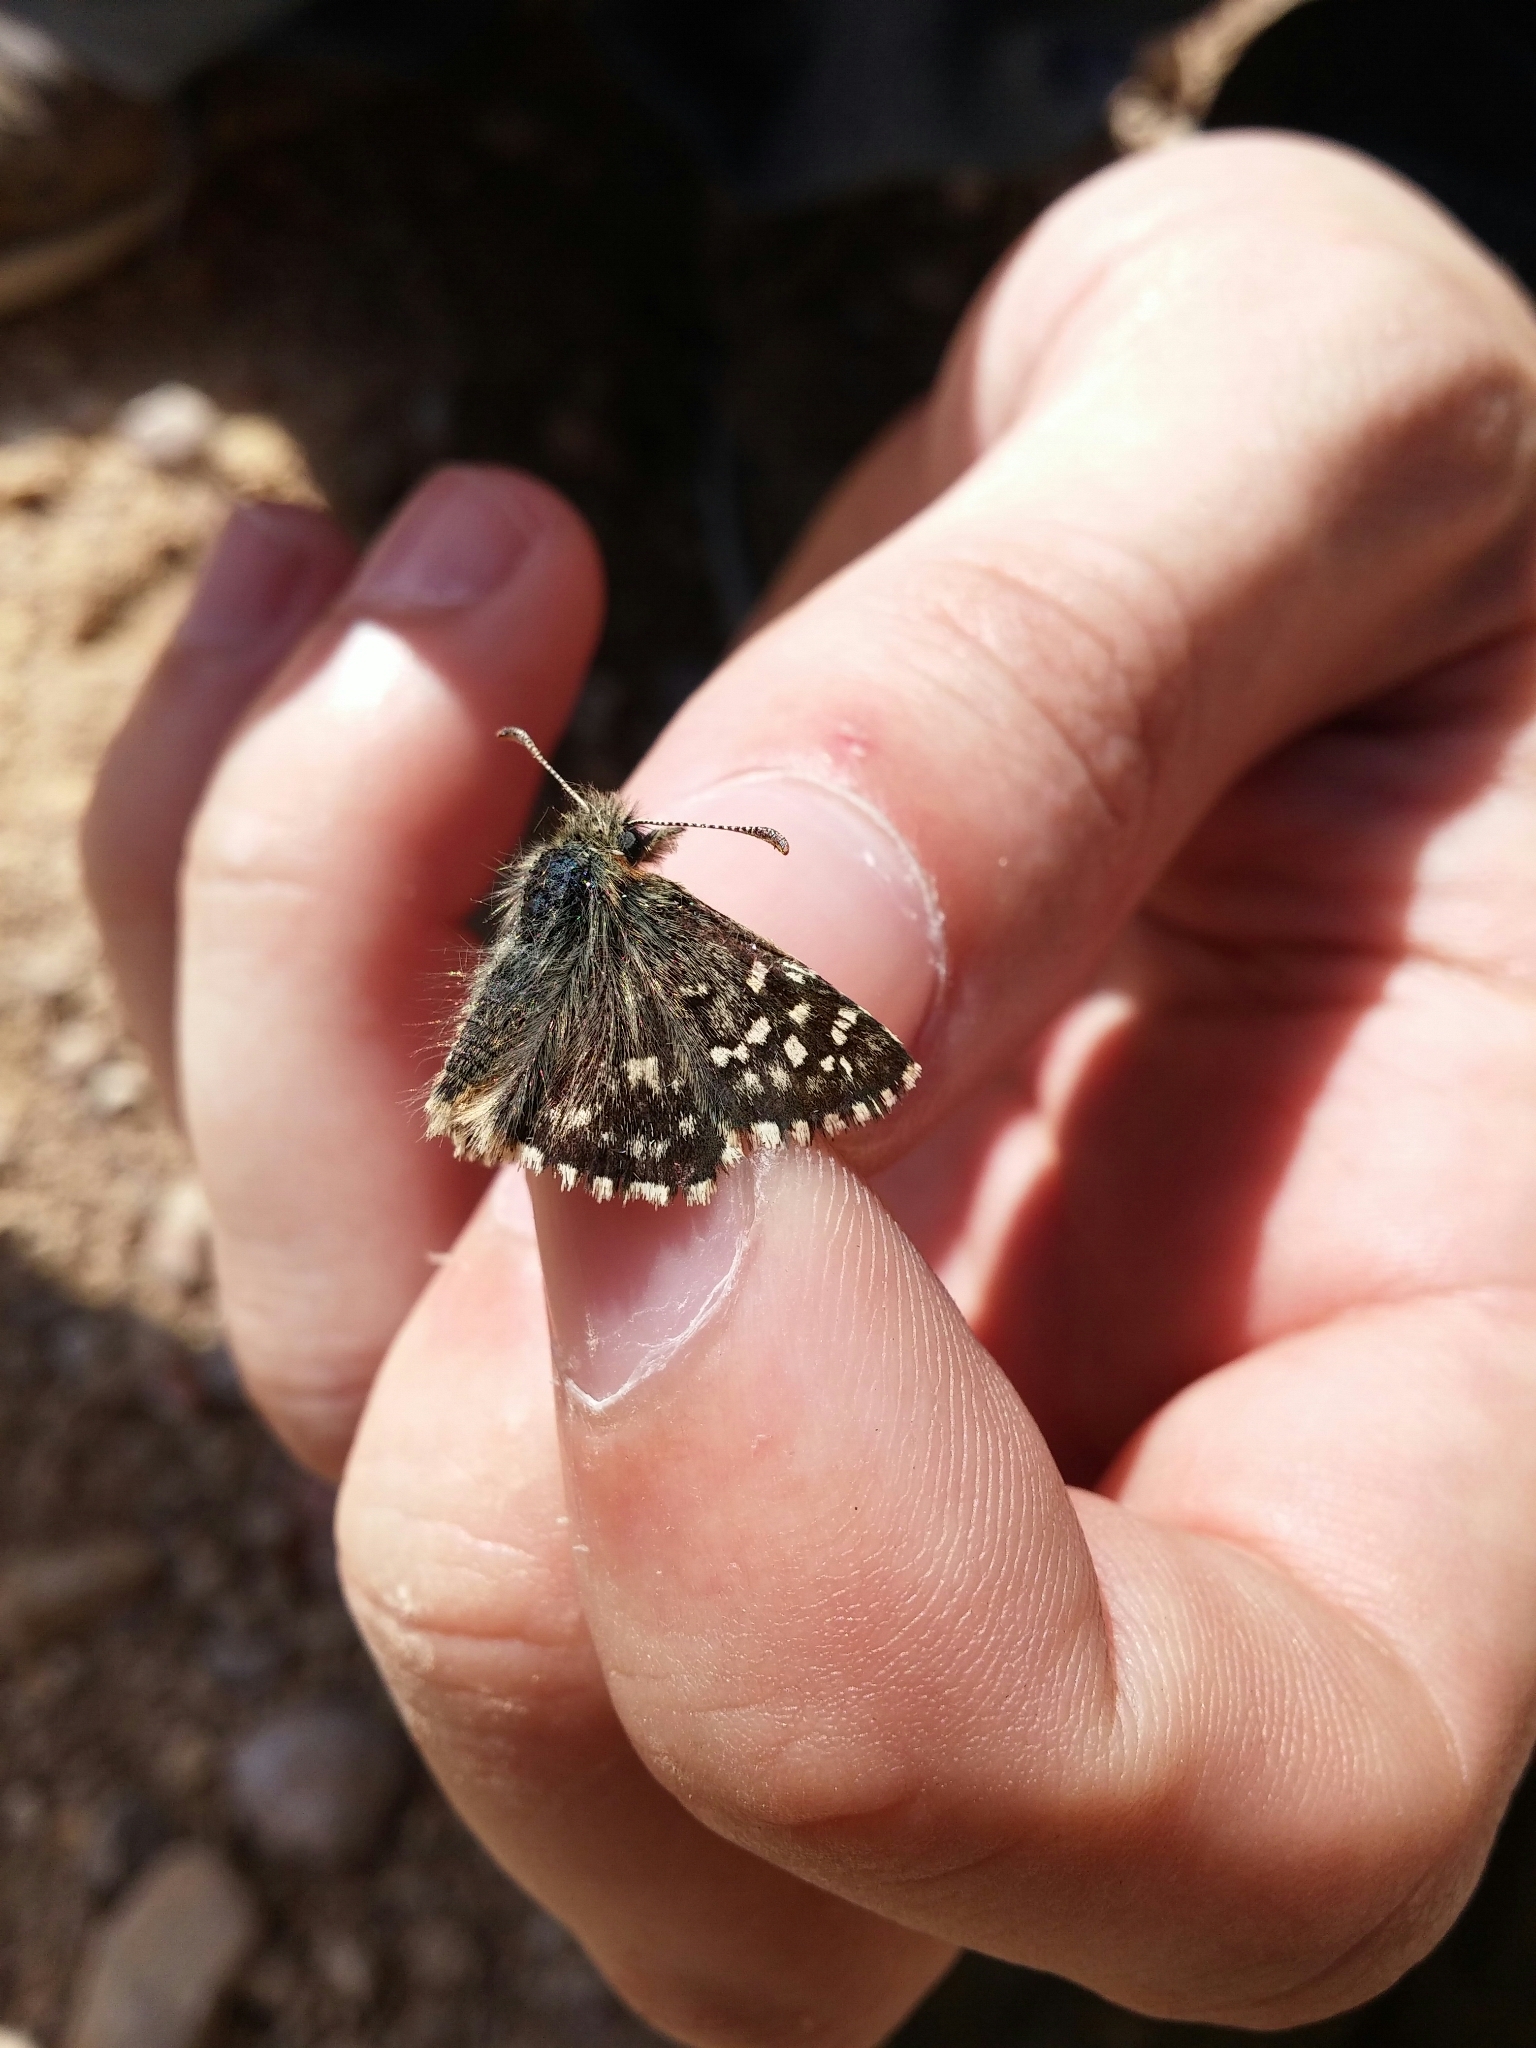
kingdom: Animalia
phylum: Arthropoda
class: Insecta
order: Lepidoptera
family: Hesperiidae
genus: Pyrgus
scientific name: Pyrgus malvoides
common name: Southern grizzled skipper
